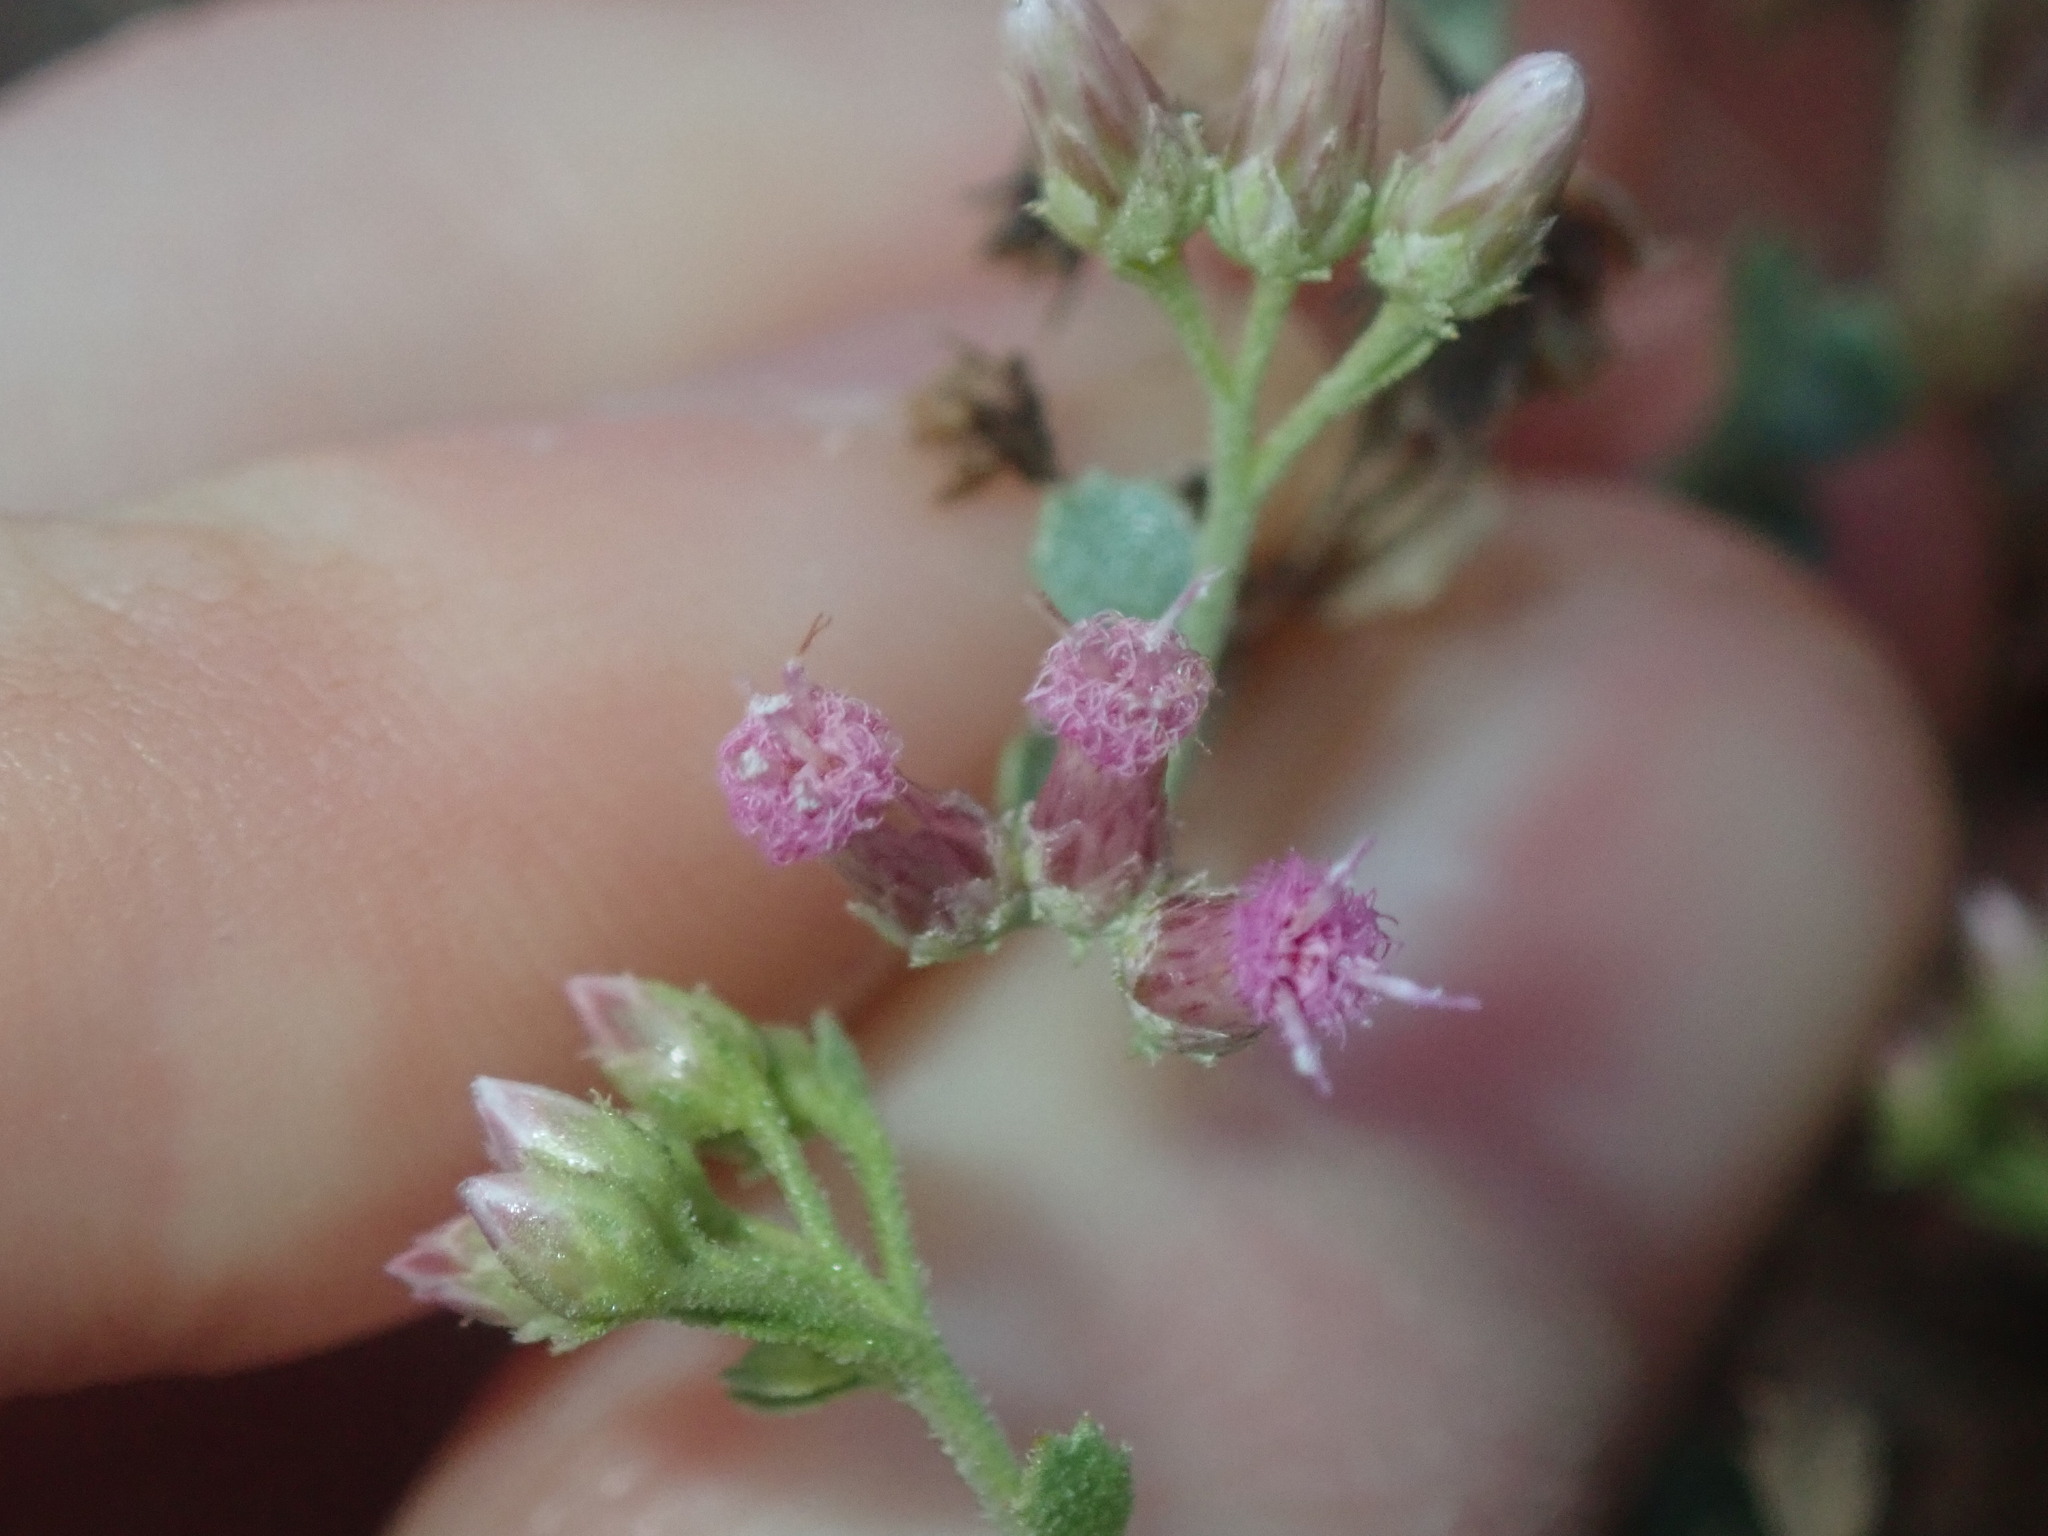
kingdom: Plantae
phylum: Tracheophyta
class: Magnoliopsida
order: Asterales
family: Asteraceae
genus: Pluchea
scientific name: Pluchea dunlopii
